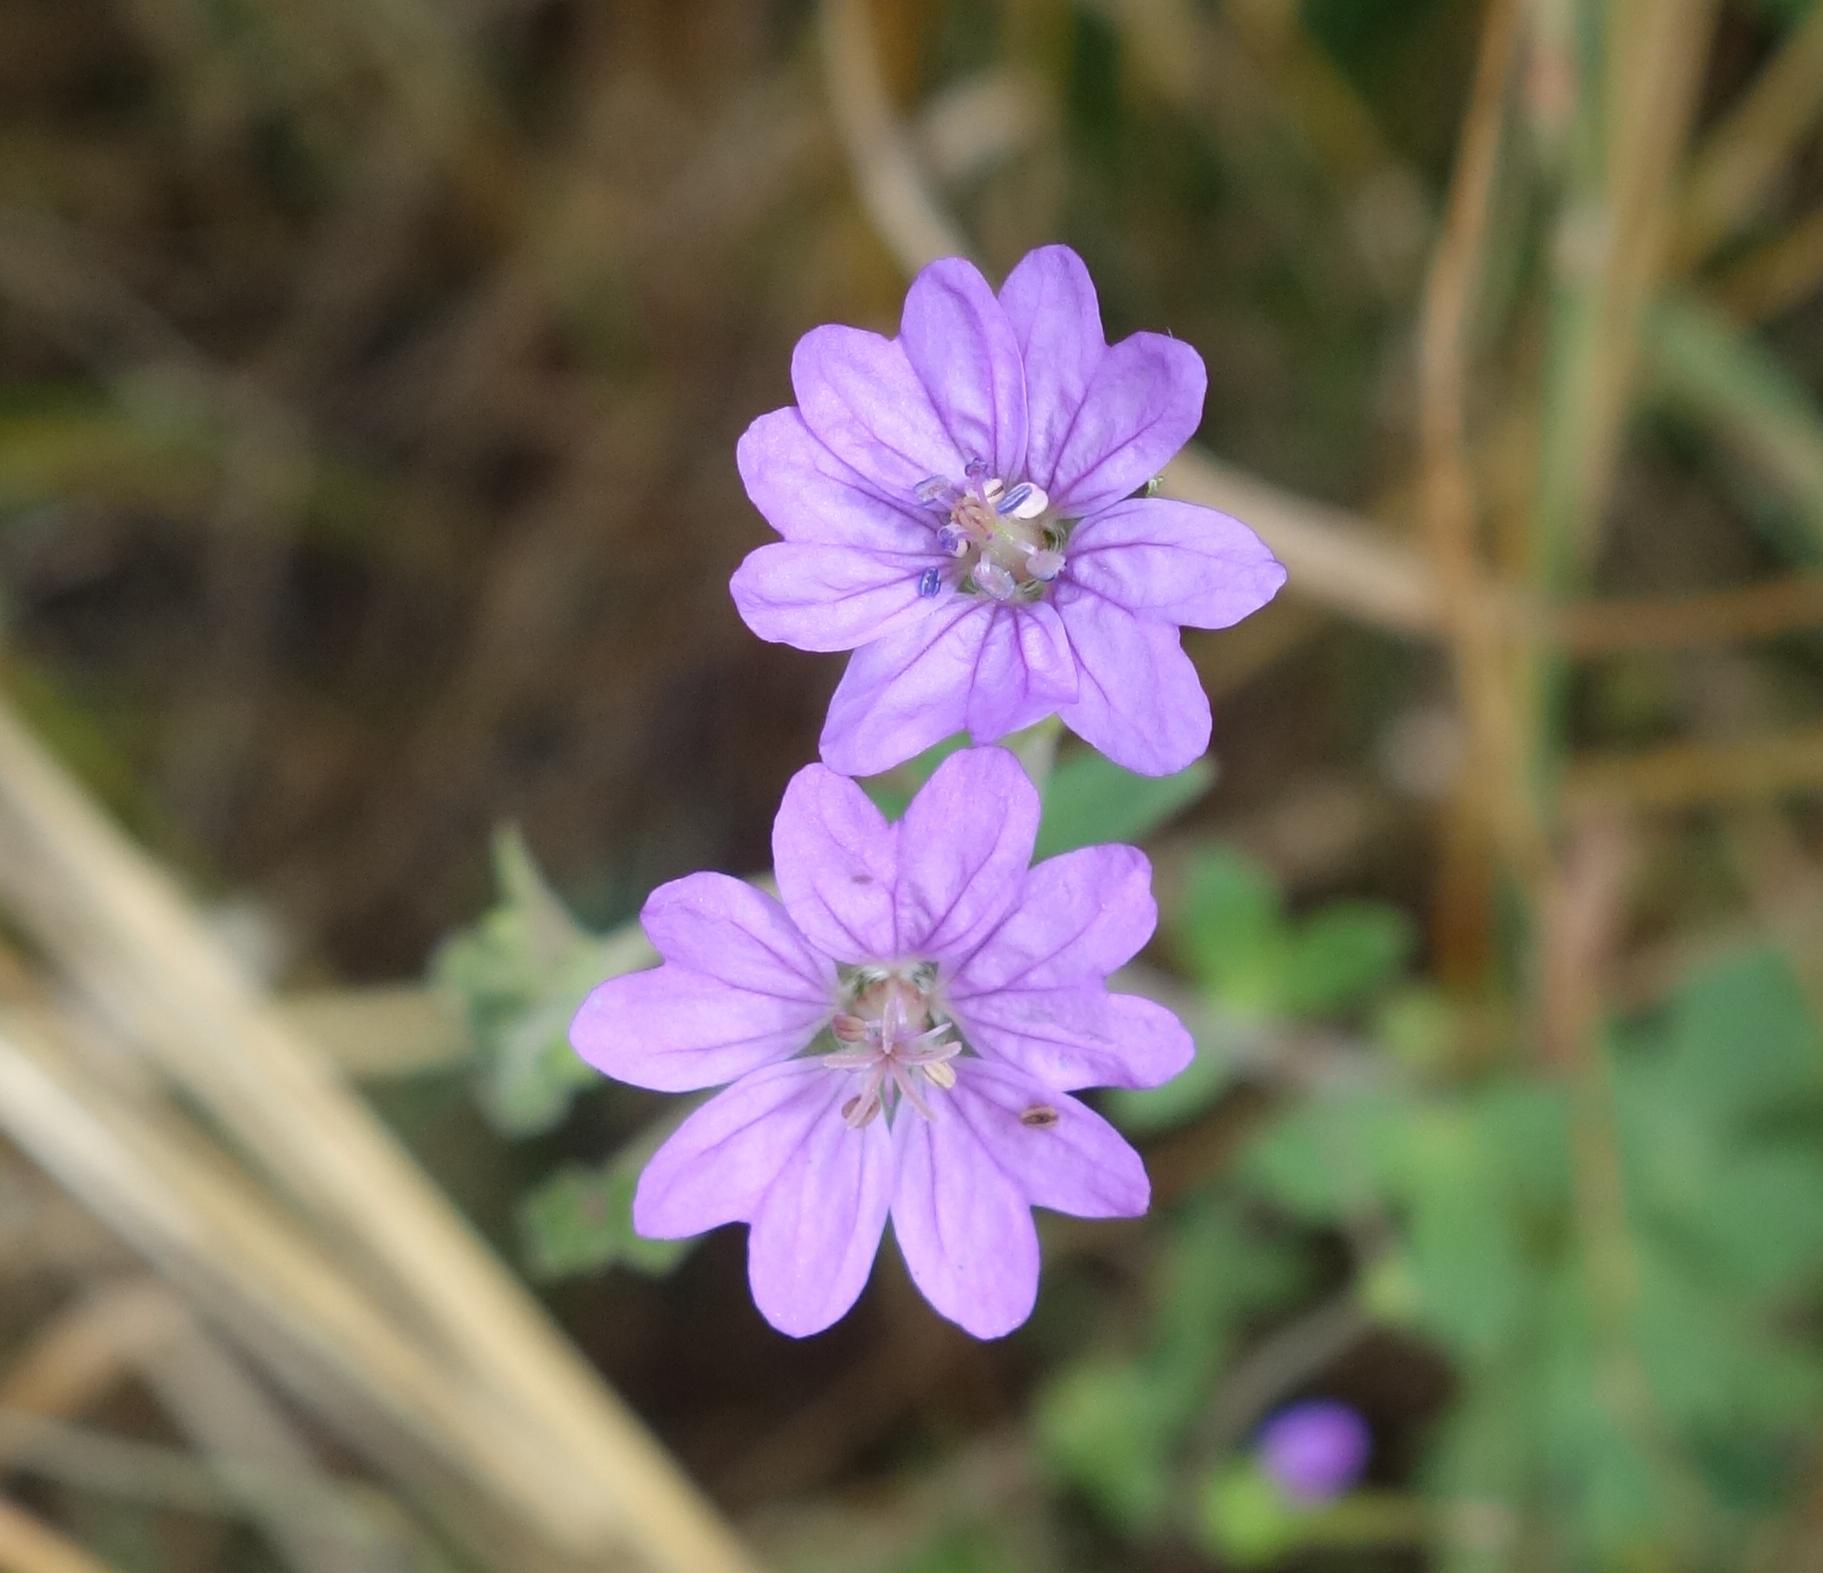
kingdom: Plantae
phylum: Tracheophyta
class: Magnoliopsida
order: Geraniales
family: Geraniaceae
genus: Geranium
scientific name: Geranium pyrenaicum
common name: Hedgerow crane's-bill
